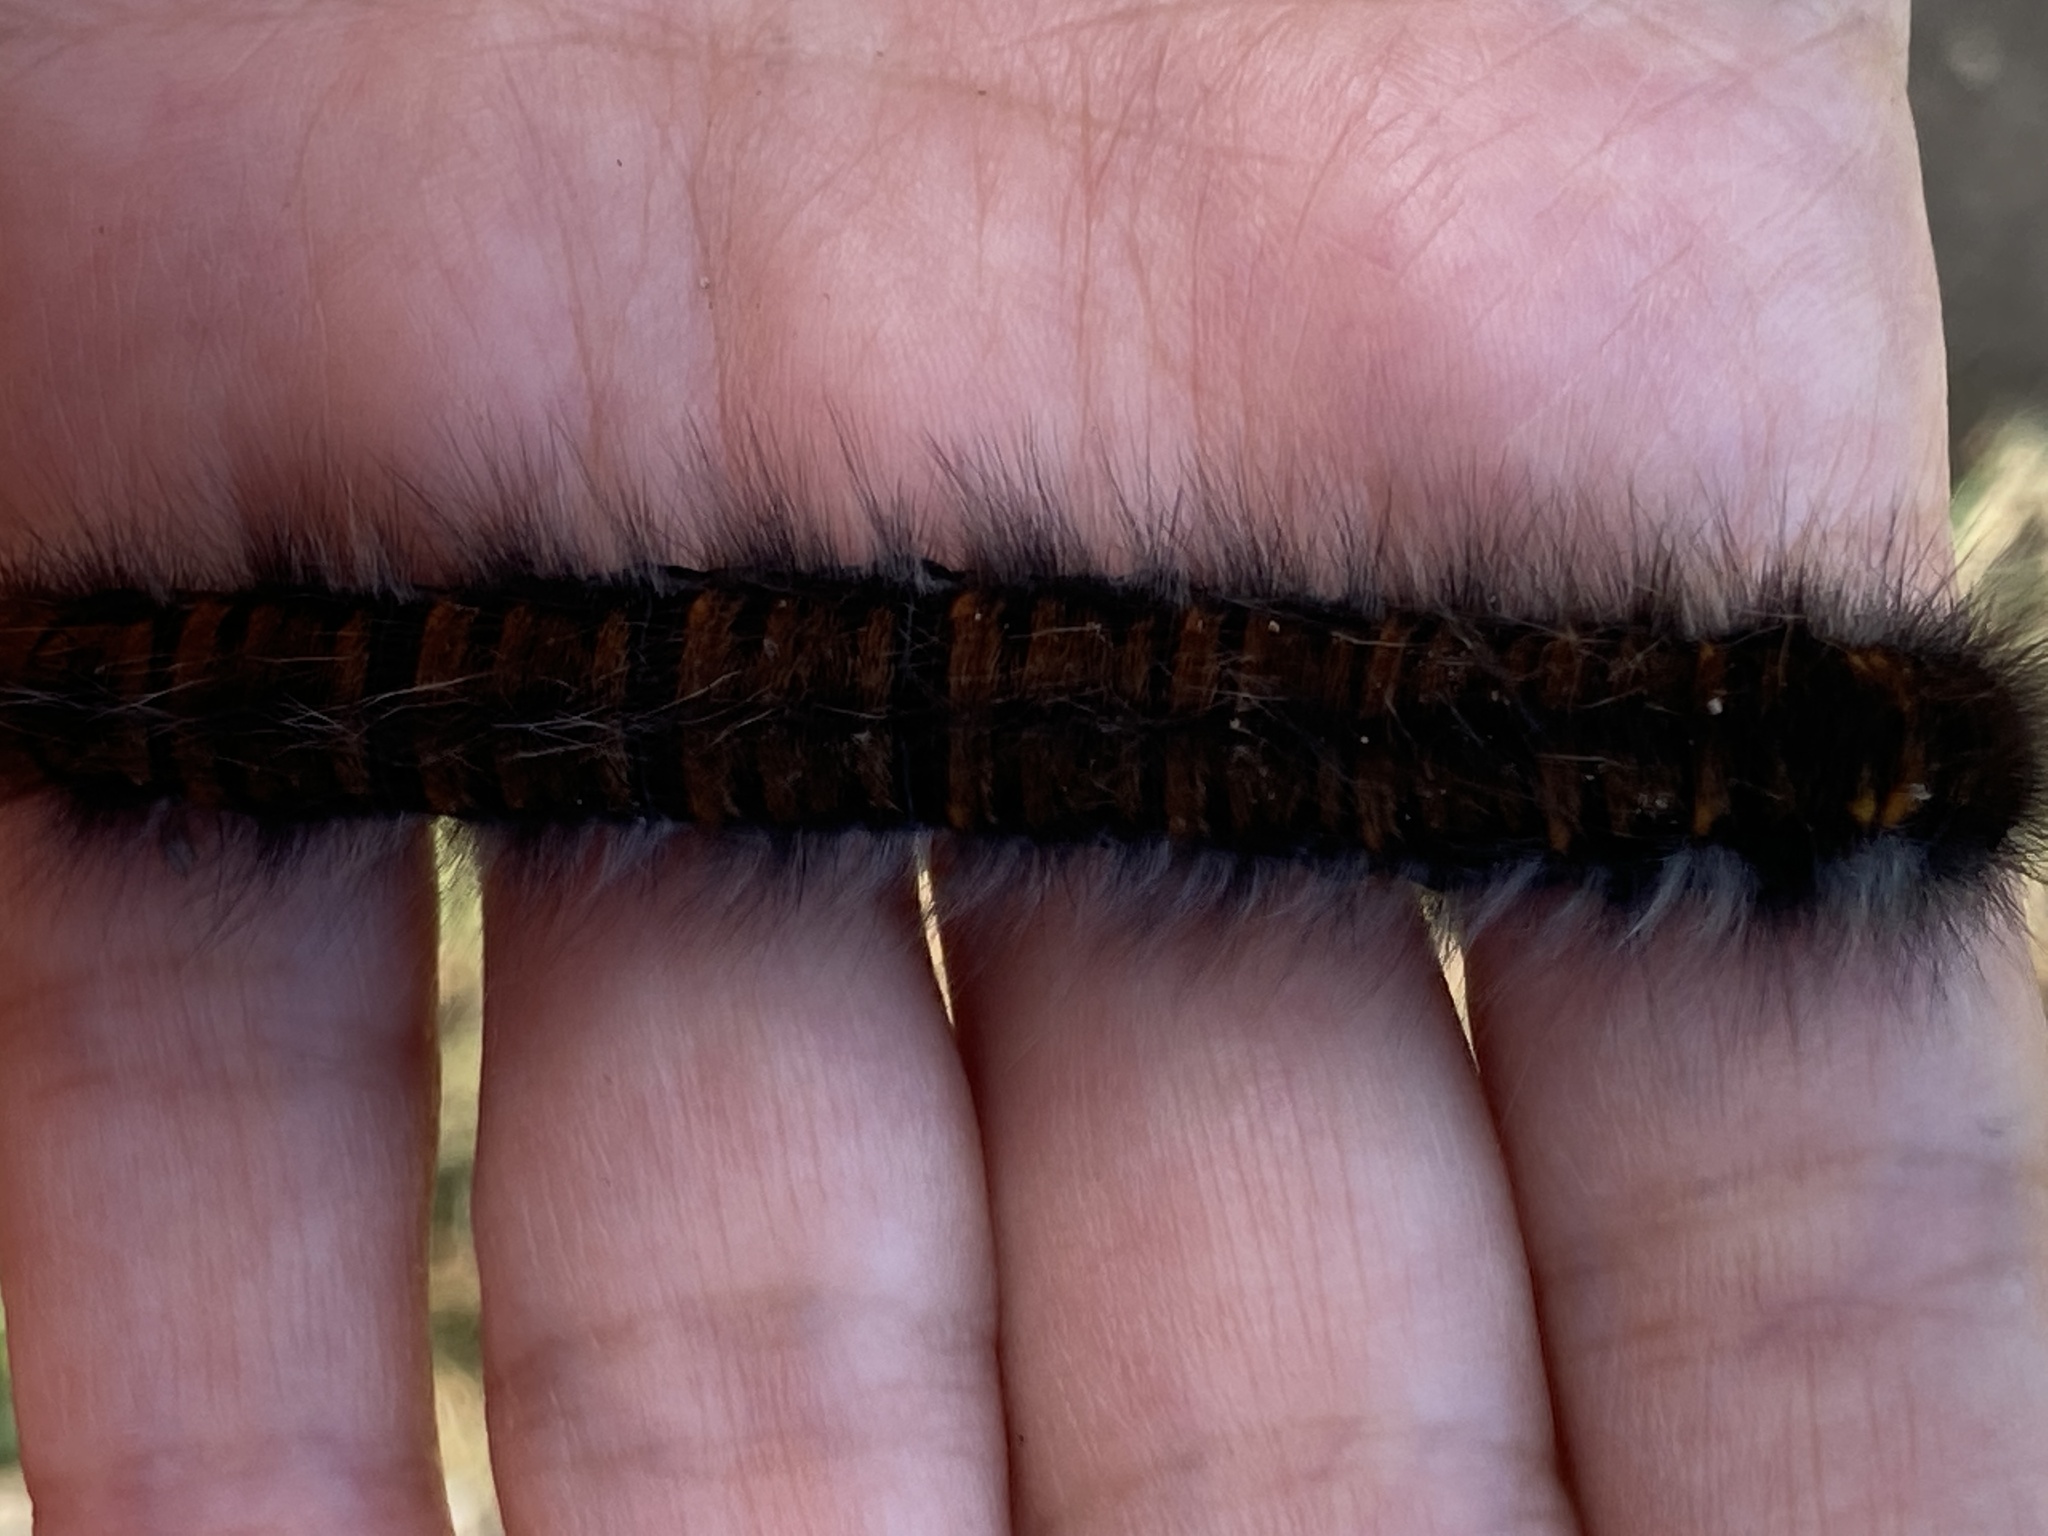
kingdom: Animalia
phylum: Arthropoda
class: Insecta
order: Lepidoptera
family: Lasiocampidae
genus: Macrothylacia
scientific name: Macrothylacia rubi
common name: Fox moth
